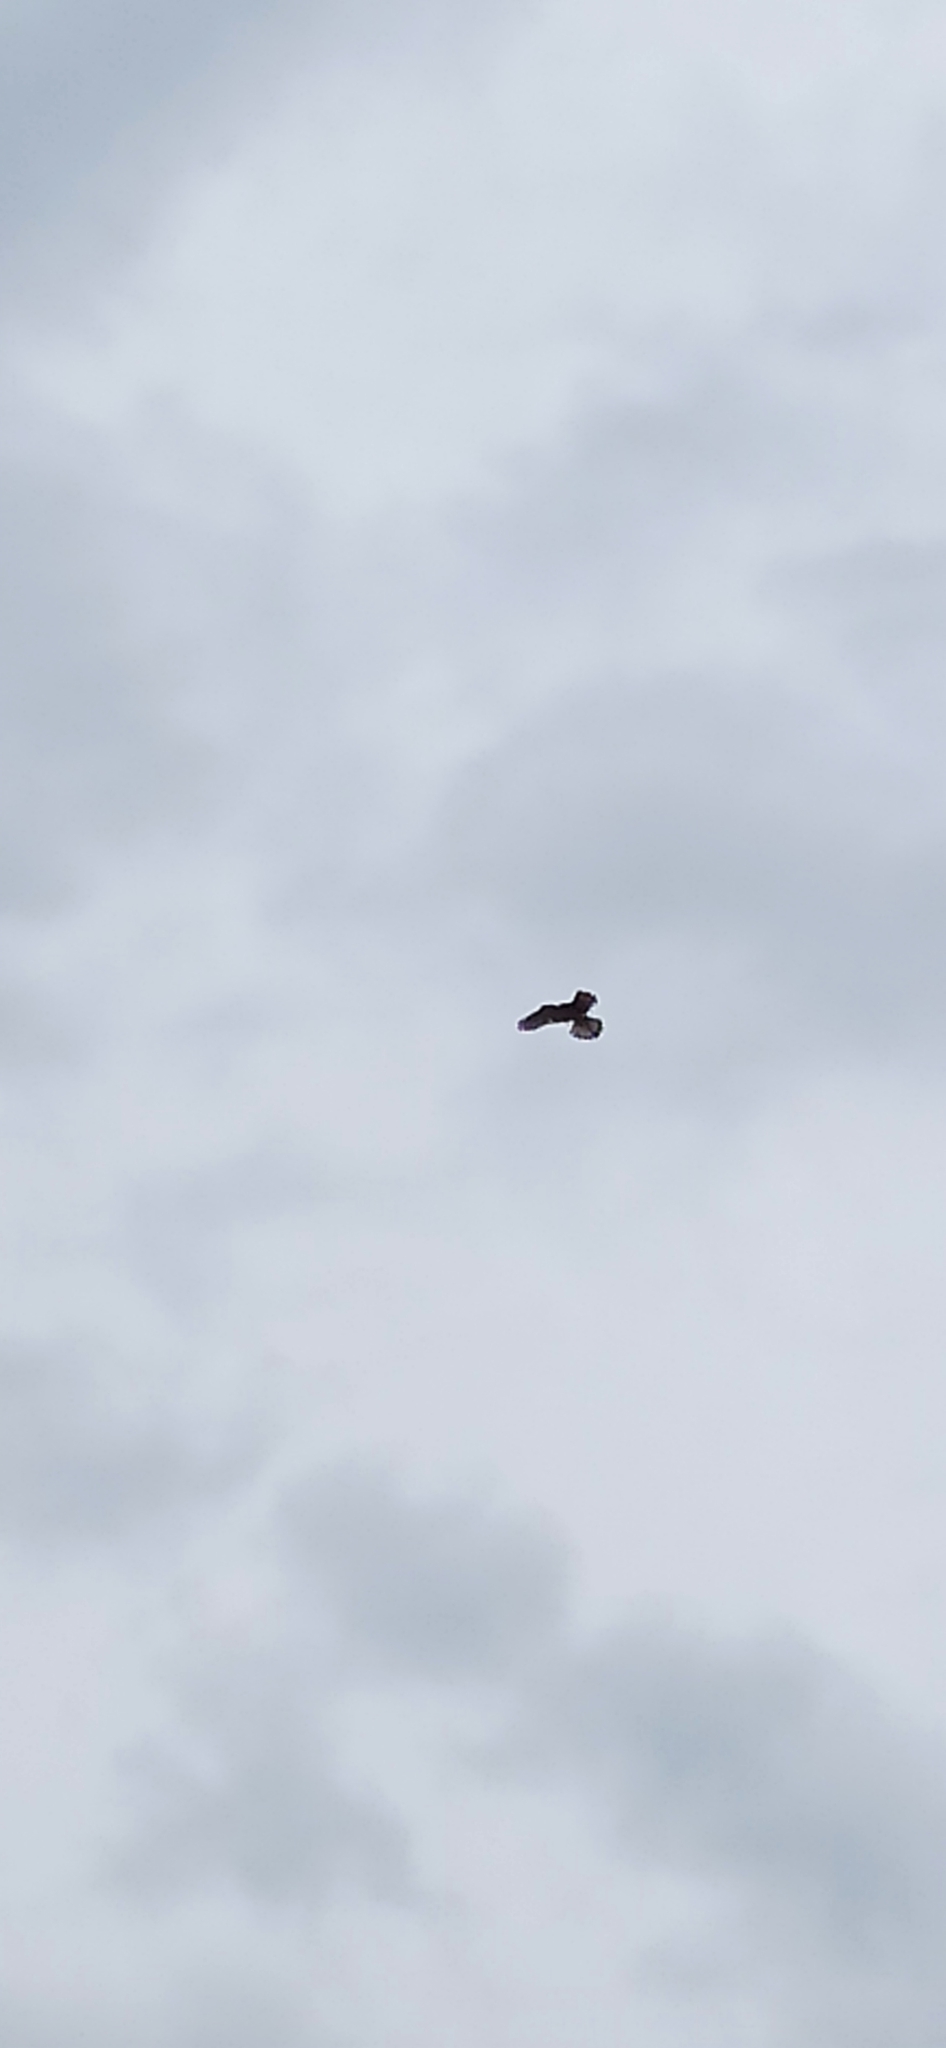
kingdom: Animalia
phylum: Chordata
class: Aves
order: Falconiformes
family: Falconidae
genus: Falco
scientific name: Falco tinnunculus
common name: Common kestrel
